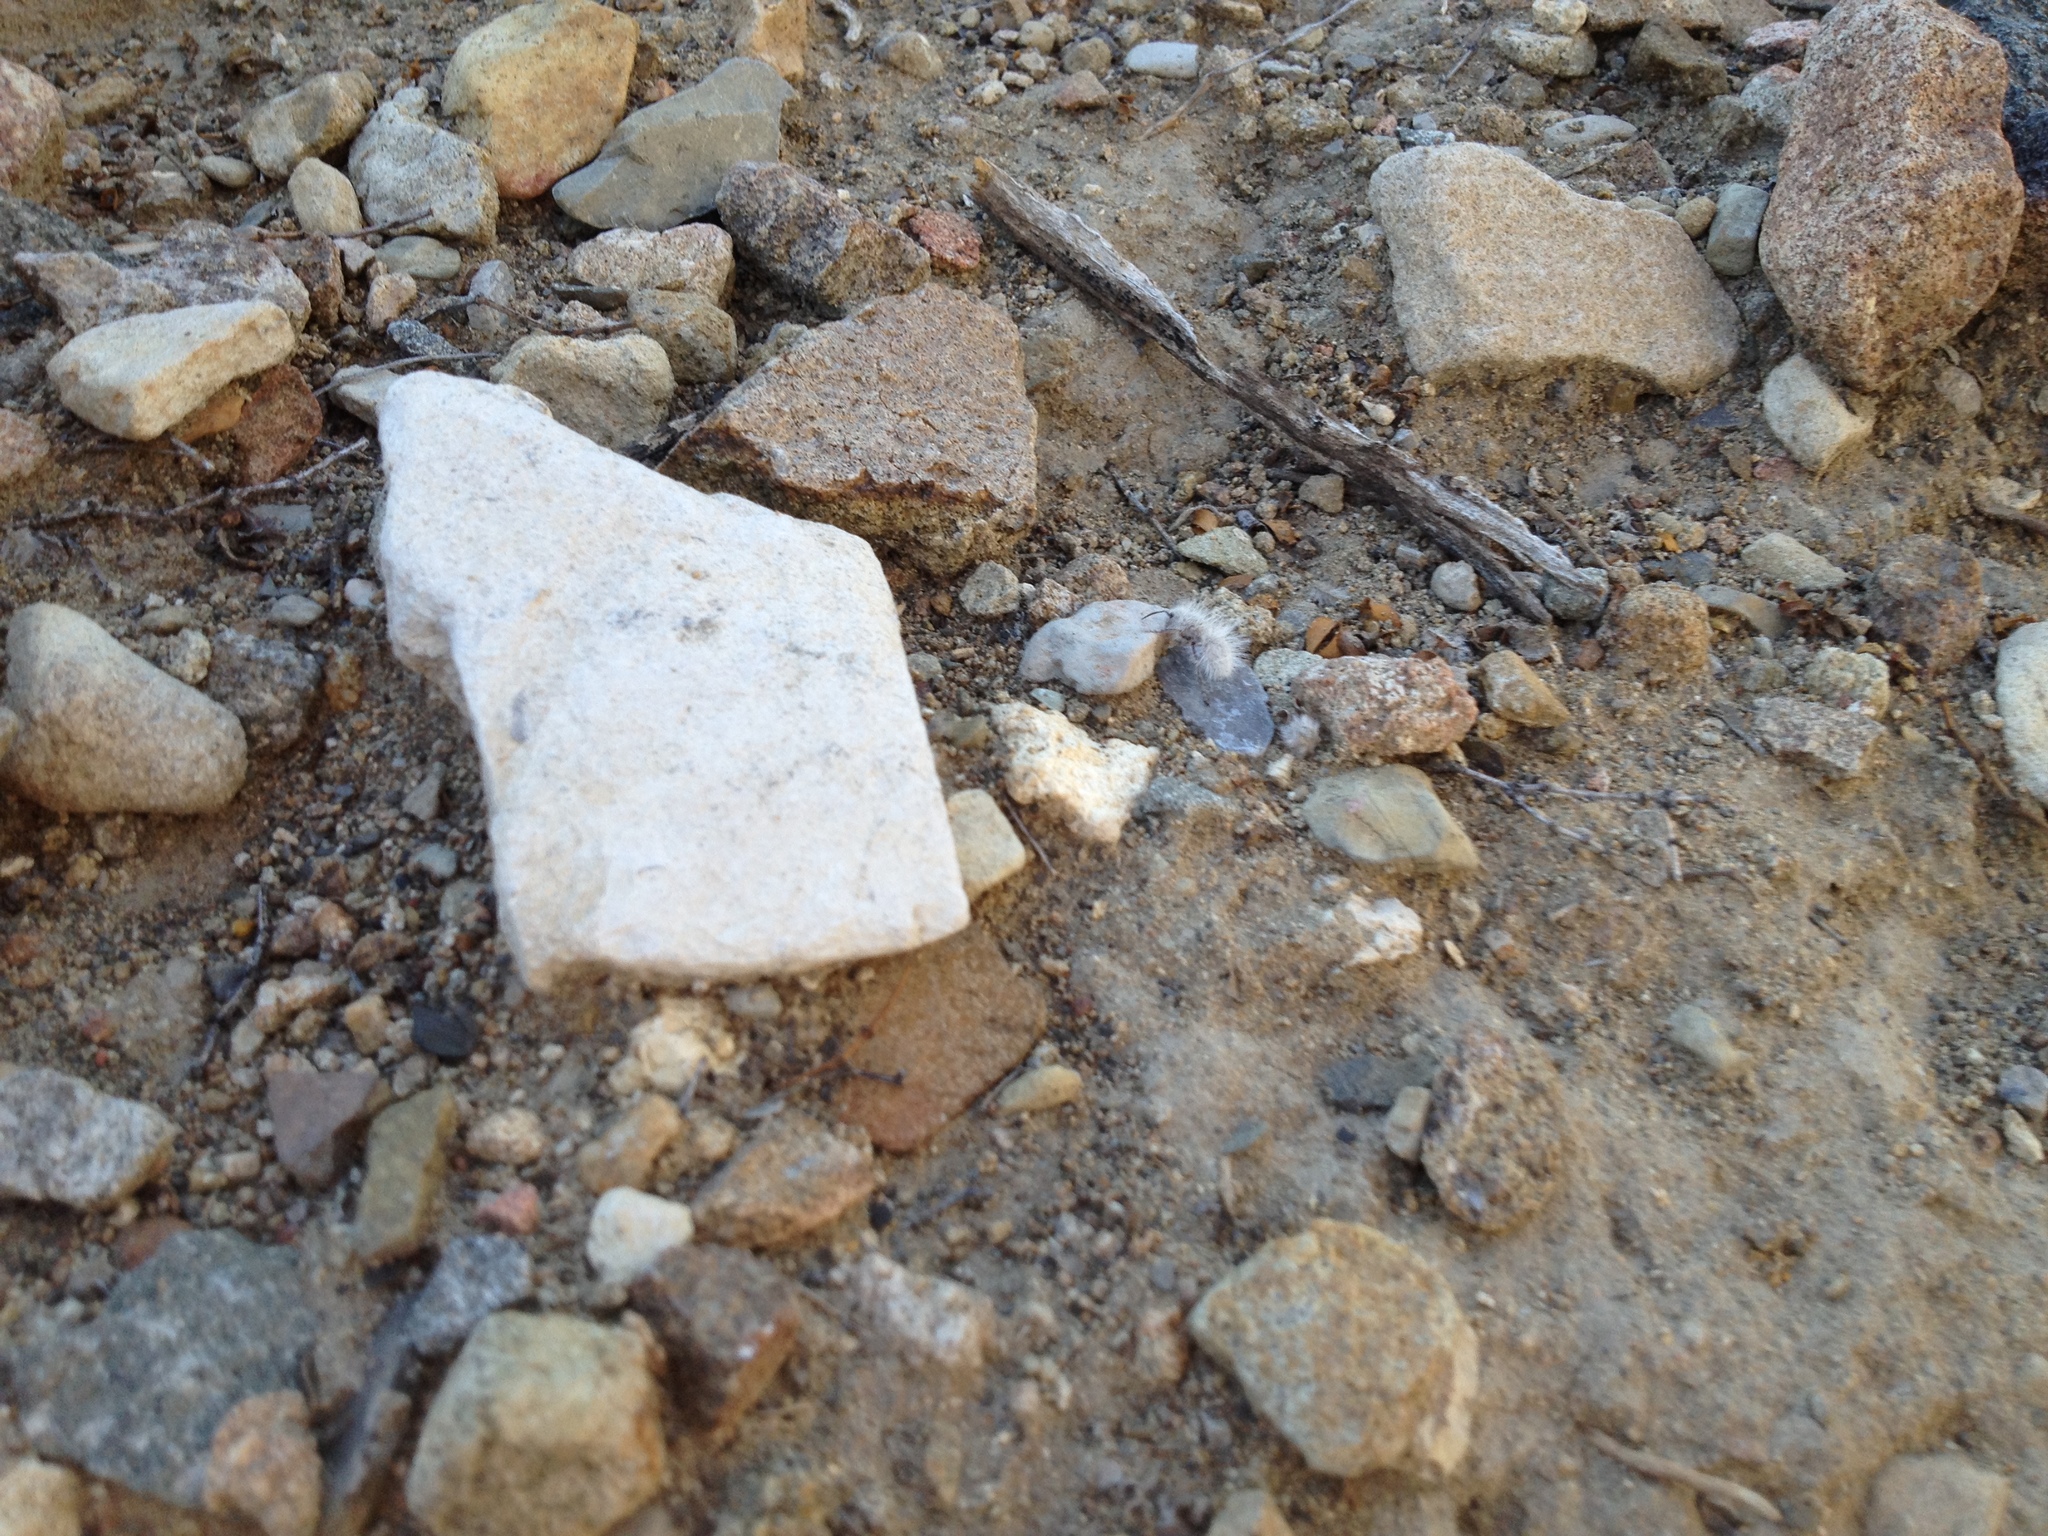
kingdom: Animalia
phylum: Arthropoda
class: Insecta
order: Hymenoptera
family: Mutillidae
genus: Dasymutilla
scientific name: Dasymutilla gloriosa
